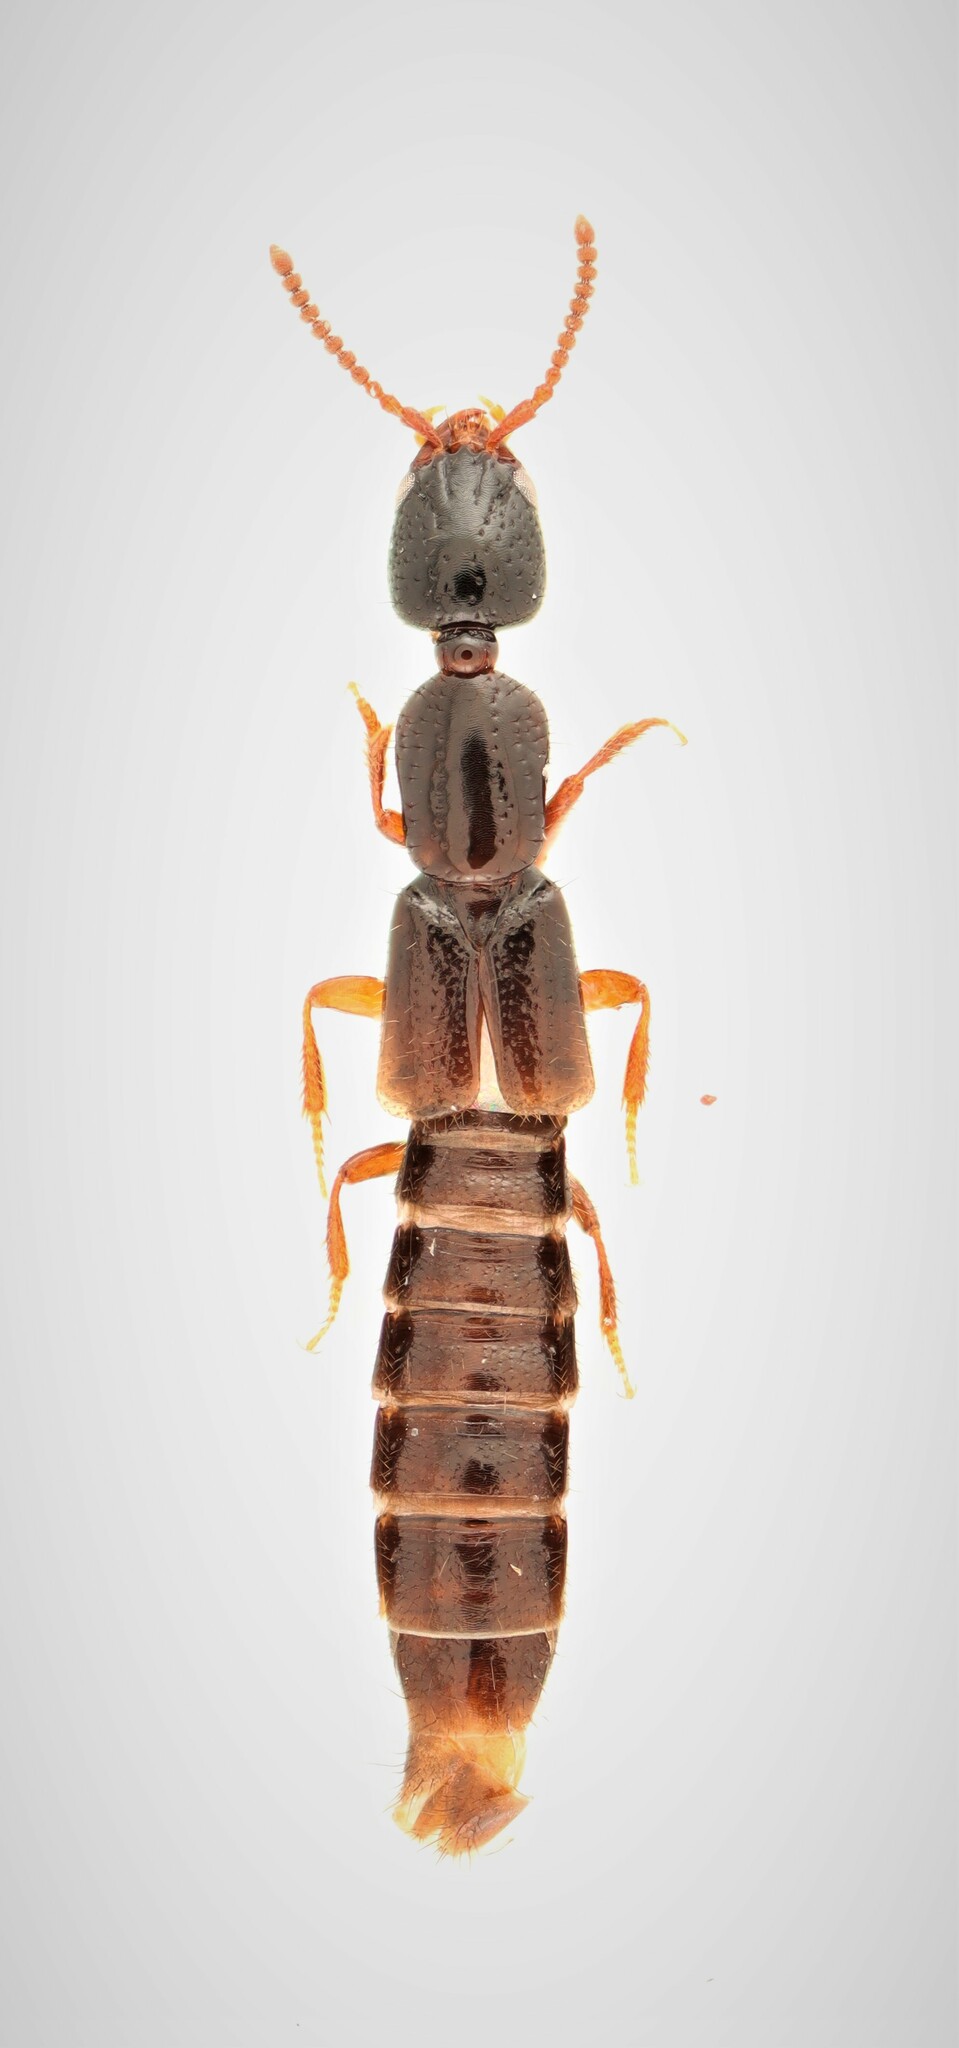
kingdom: Animalia
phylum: Arthropoda
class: Insecta
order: Coleoptera
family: Staphylinidae
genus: Leptacinus
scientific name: Leptacinus intermedius
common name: Staph beetle
